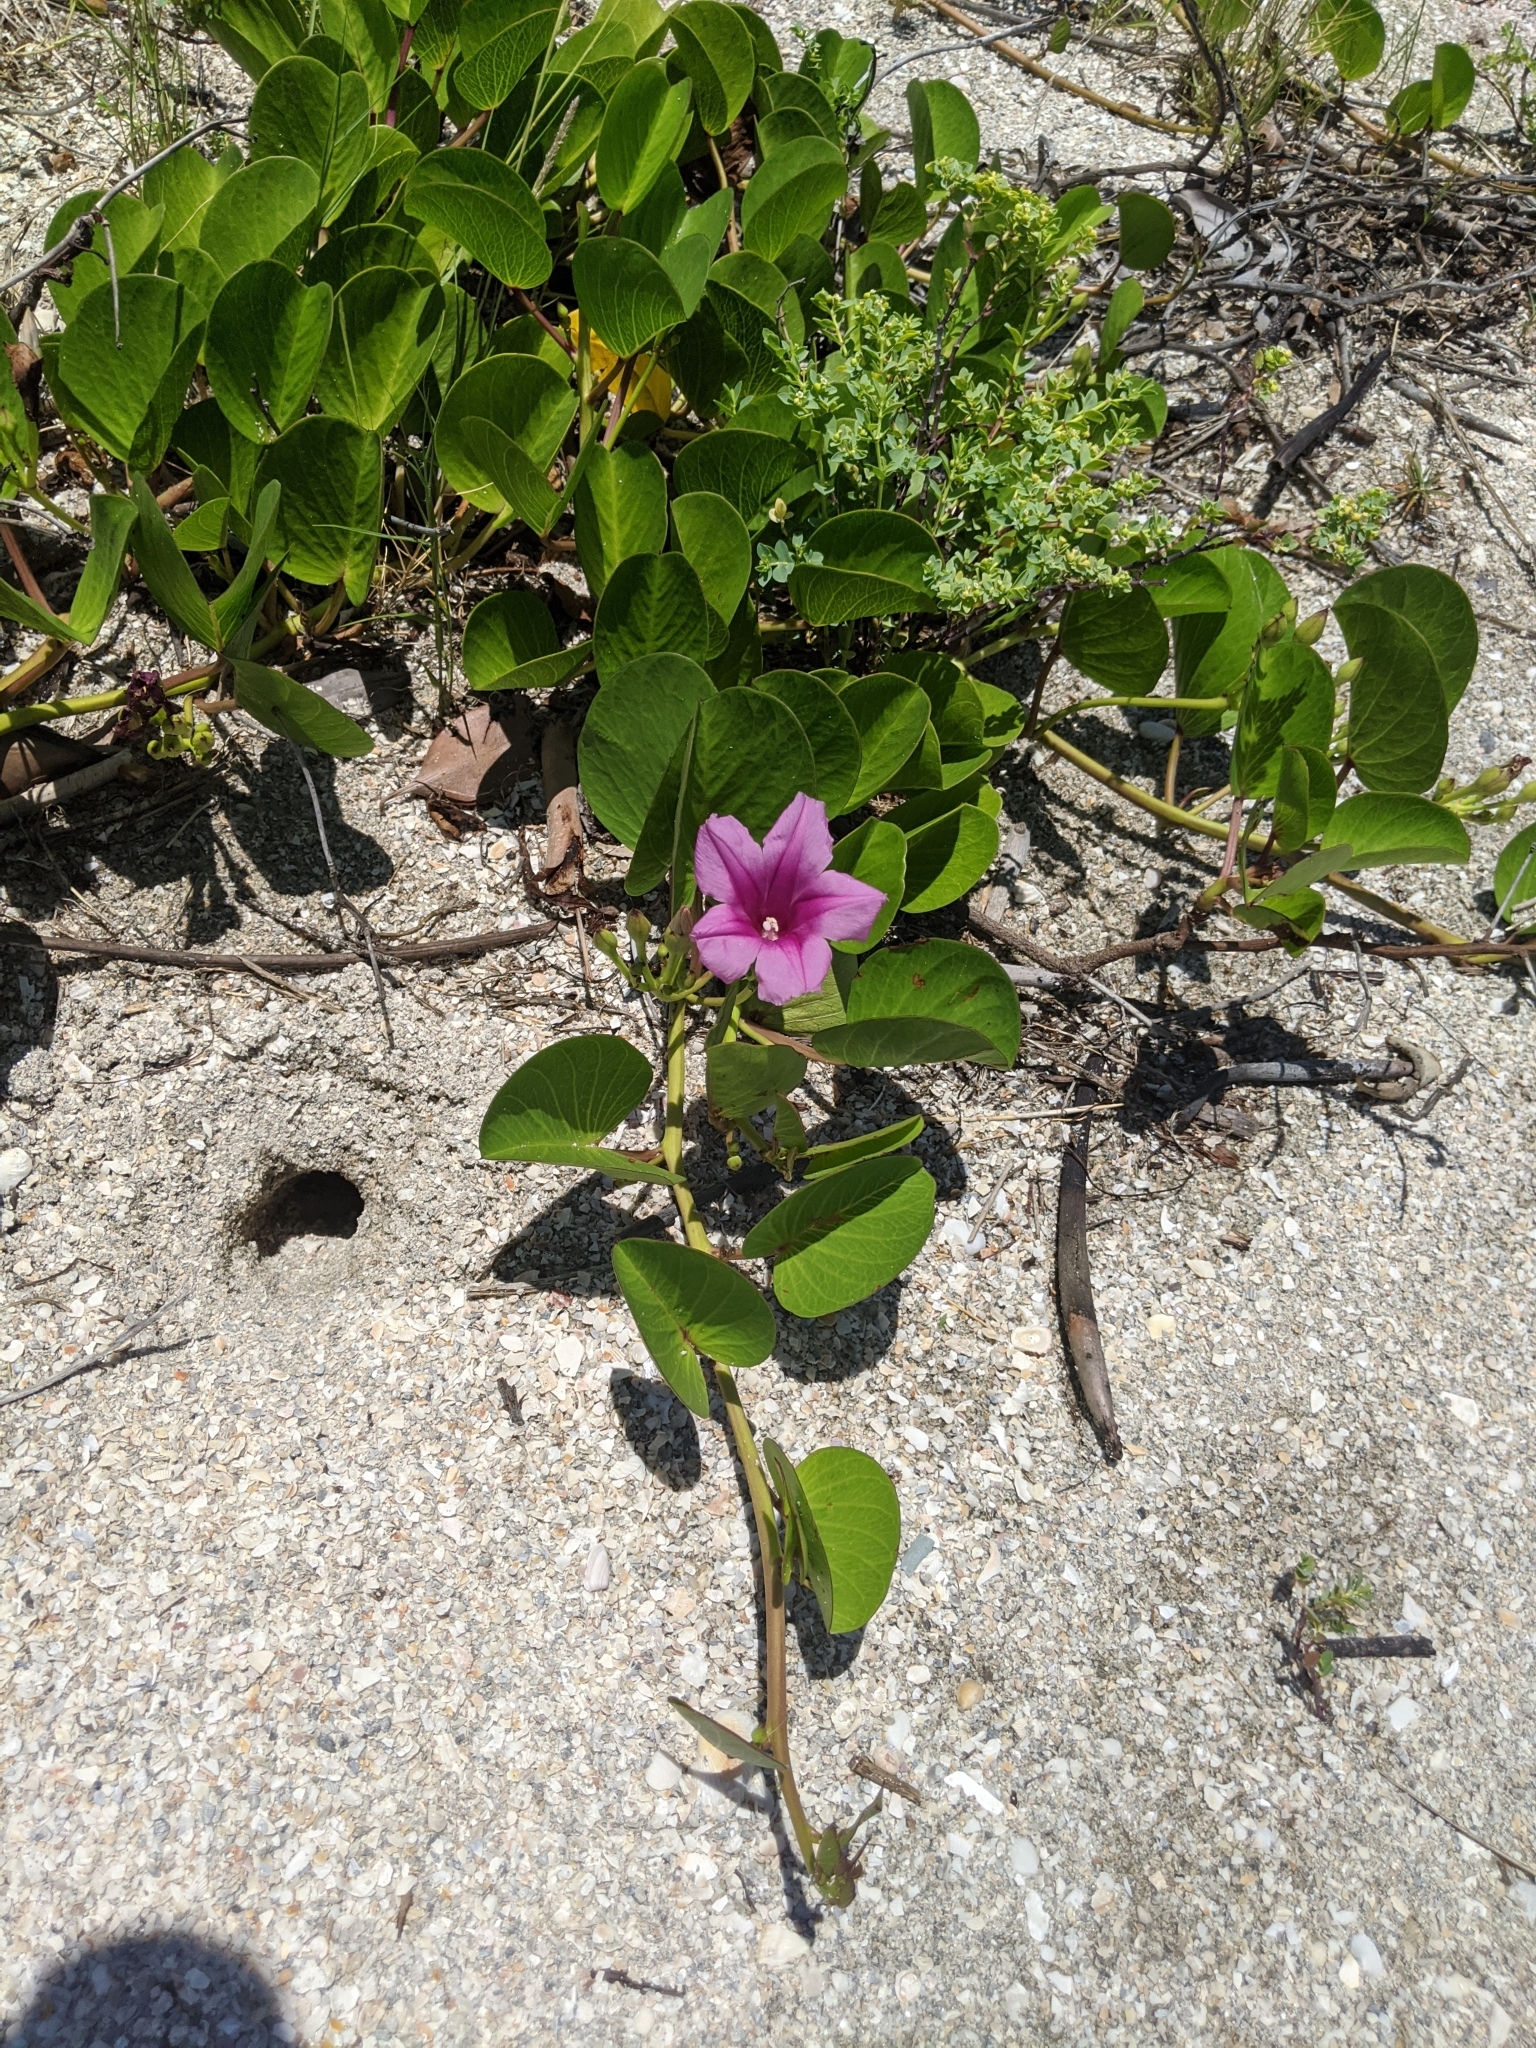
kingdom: Plantae
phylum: Tracheophyta
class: Magnoliopsida
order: Solanales
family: Convolvulaceae
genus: Ipomoea
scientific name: Ipomoea pes-caprae
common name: Beach morning glory
